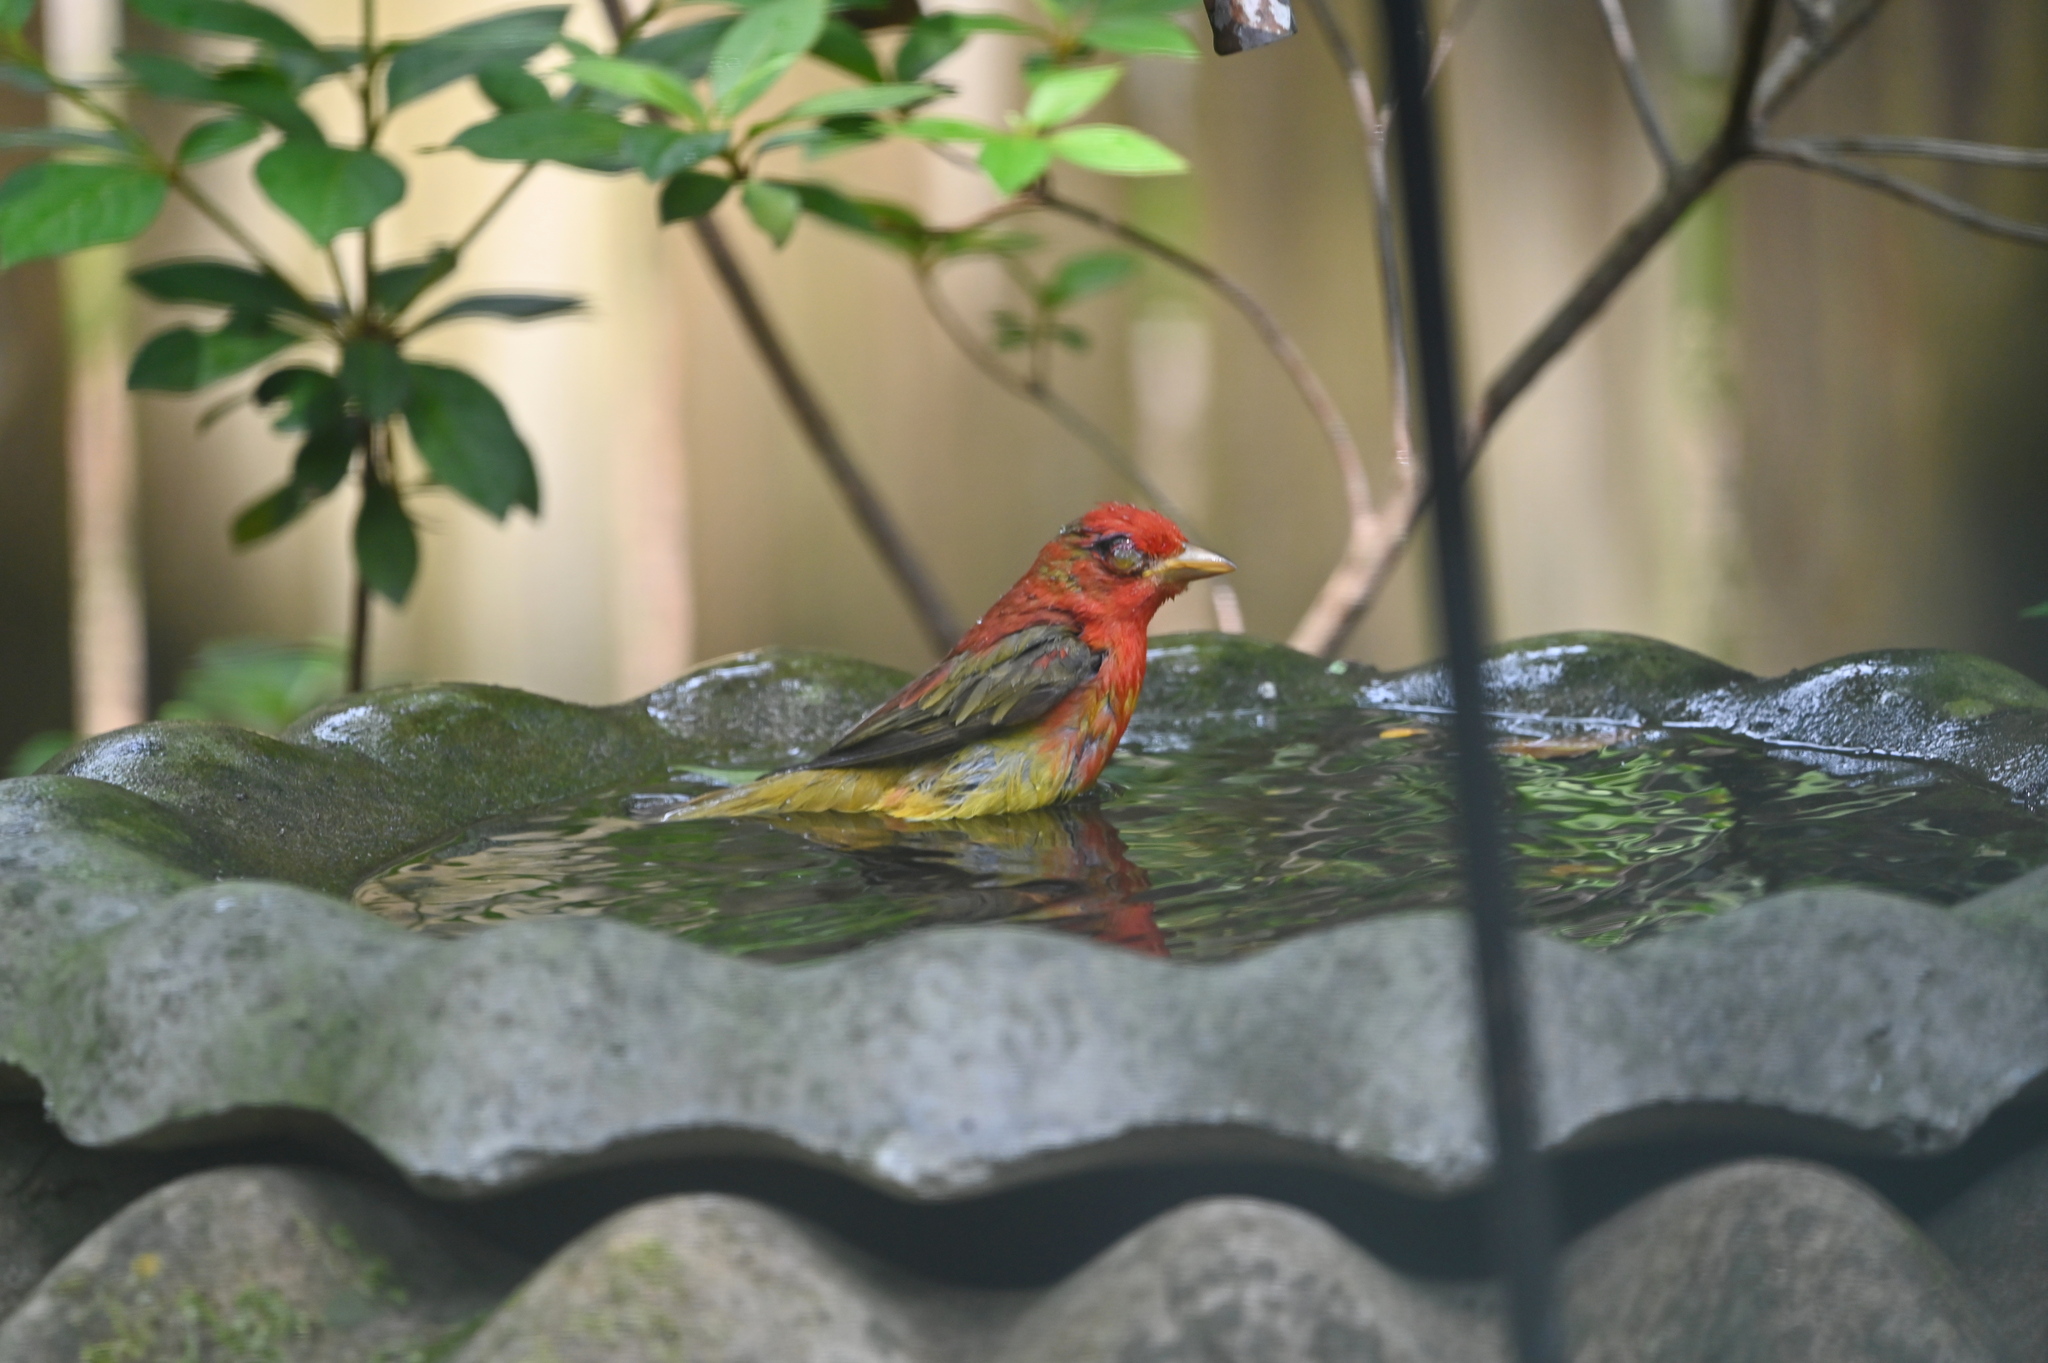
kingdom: Animalia
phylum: Chordata
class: Aves
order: Passeriformes
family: Cardinalidae
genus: Piranga
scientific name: Piranga rubra
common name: Summer tanager
